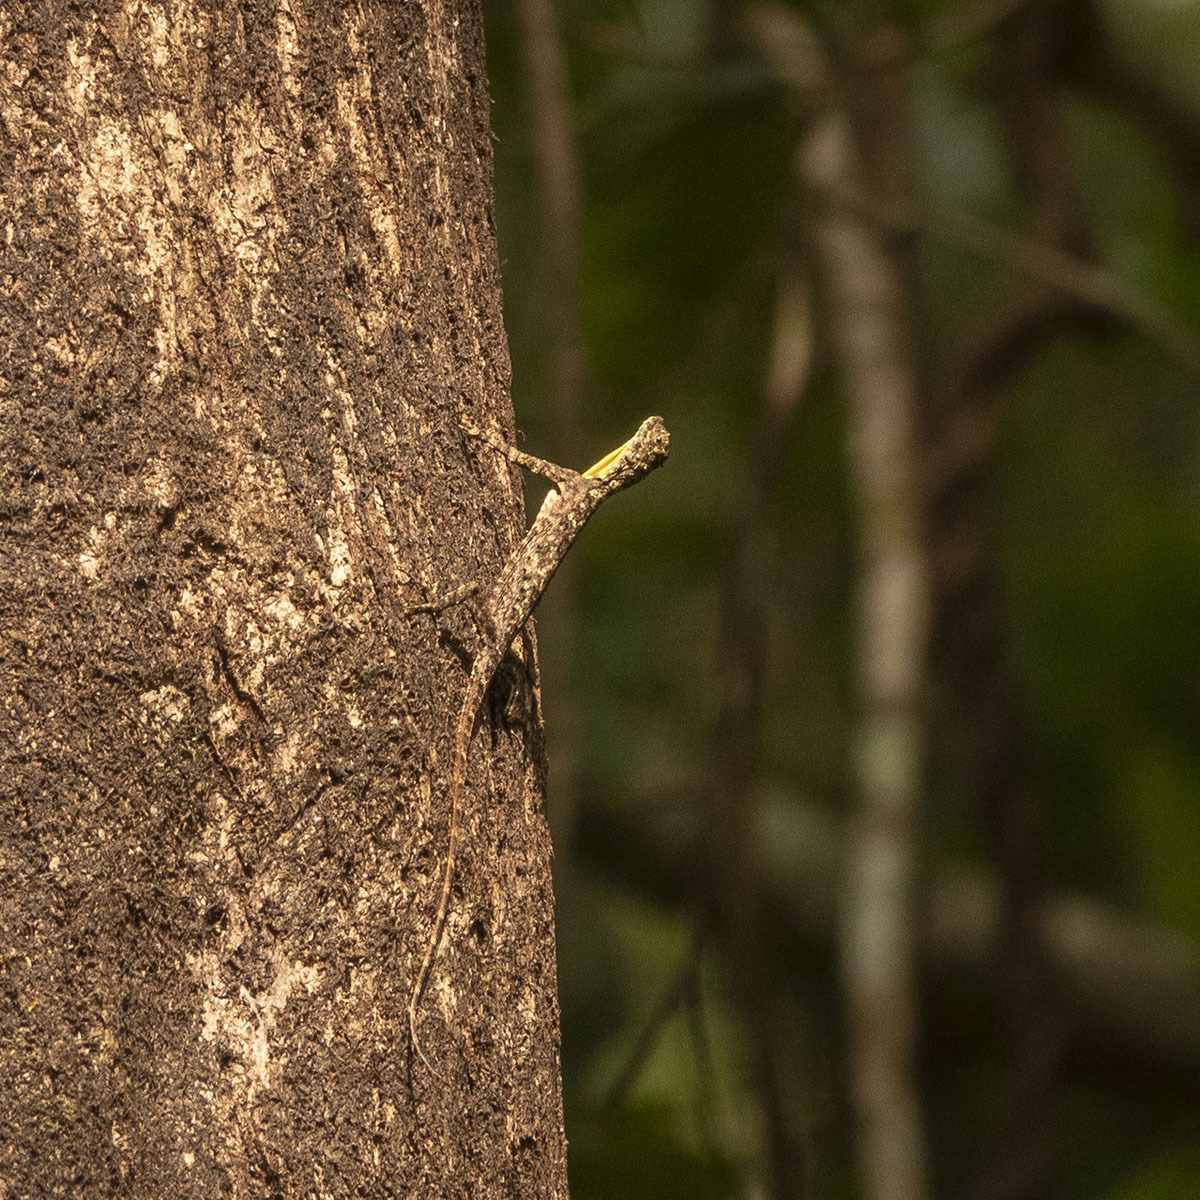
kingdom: Animalia
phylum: Chordata
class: Squamata
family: Agamidae
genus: Draco
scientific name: Draco dussumieri
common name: Southern flying lizard
